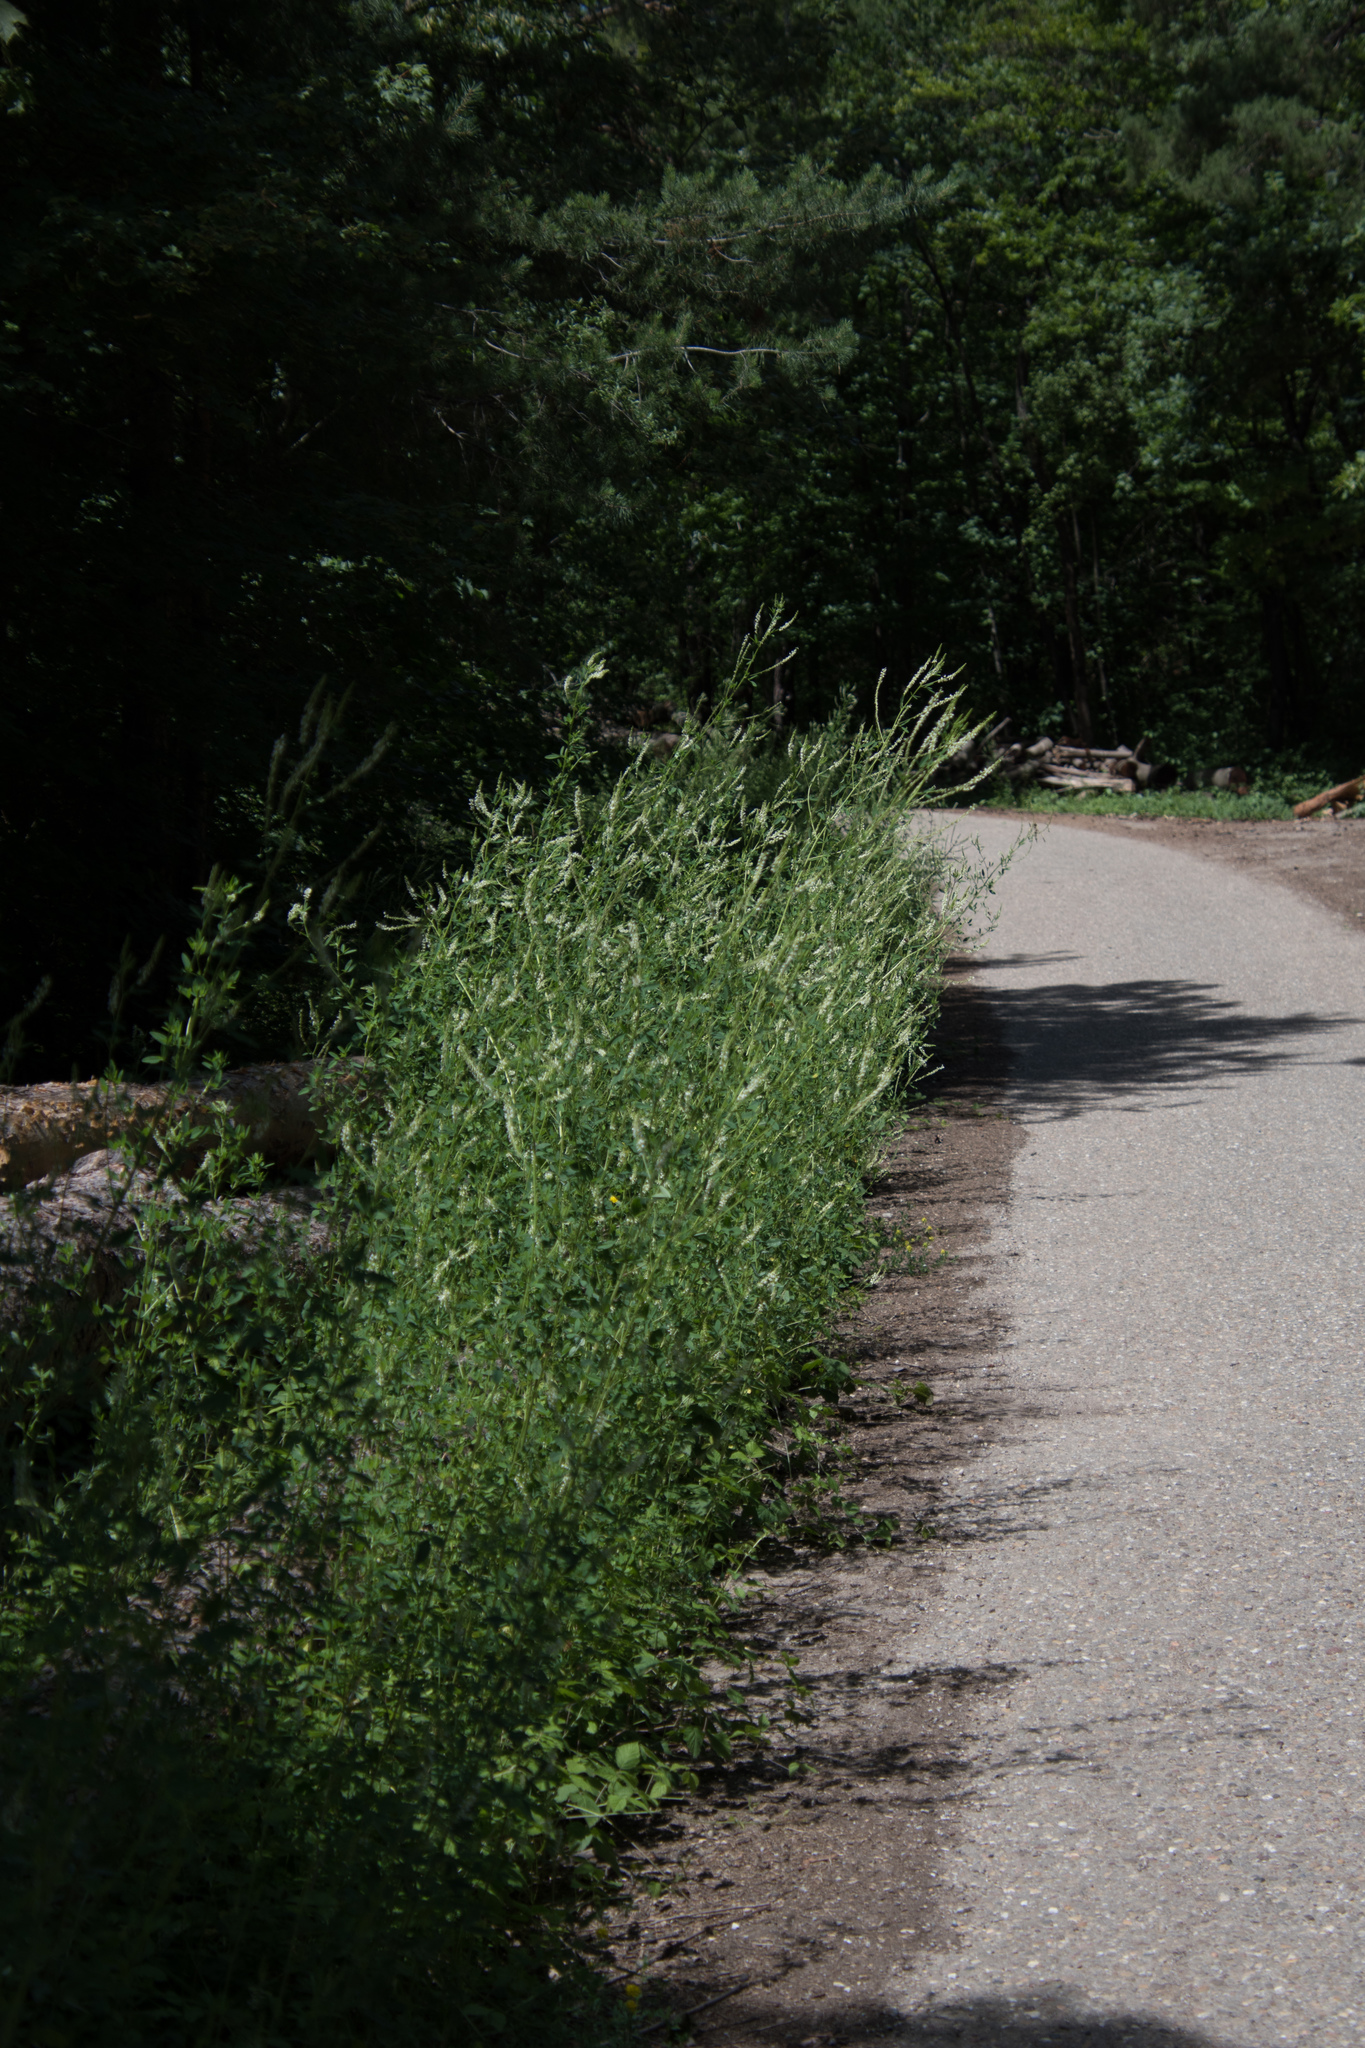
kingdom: Plantae
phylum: Tracheophyta
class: Magnoliopsida
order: Fabales
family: Fabaceae
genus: Melilotus
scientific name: Melilotus albus
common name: White melilot
